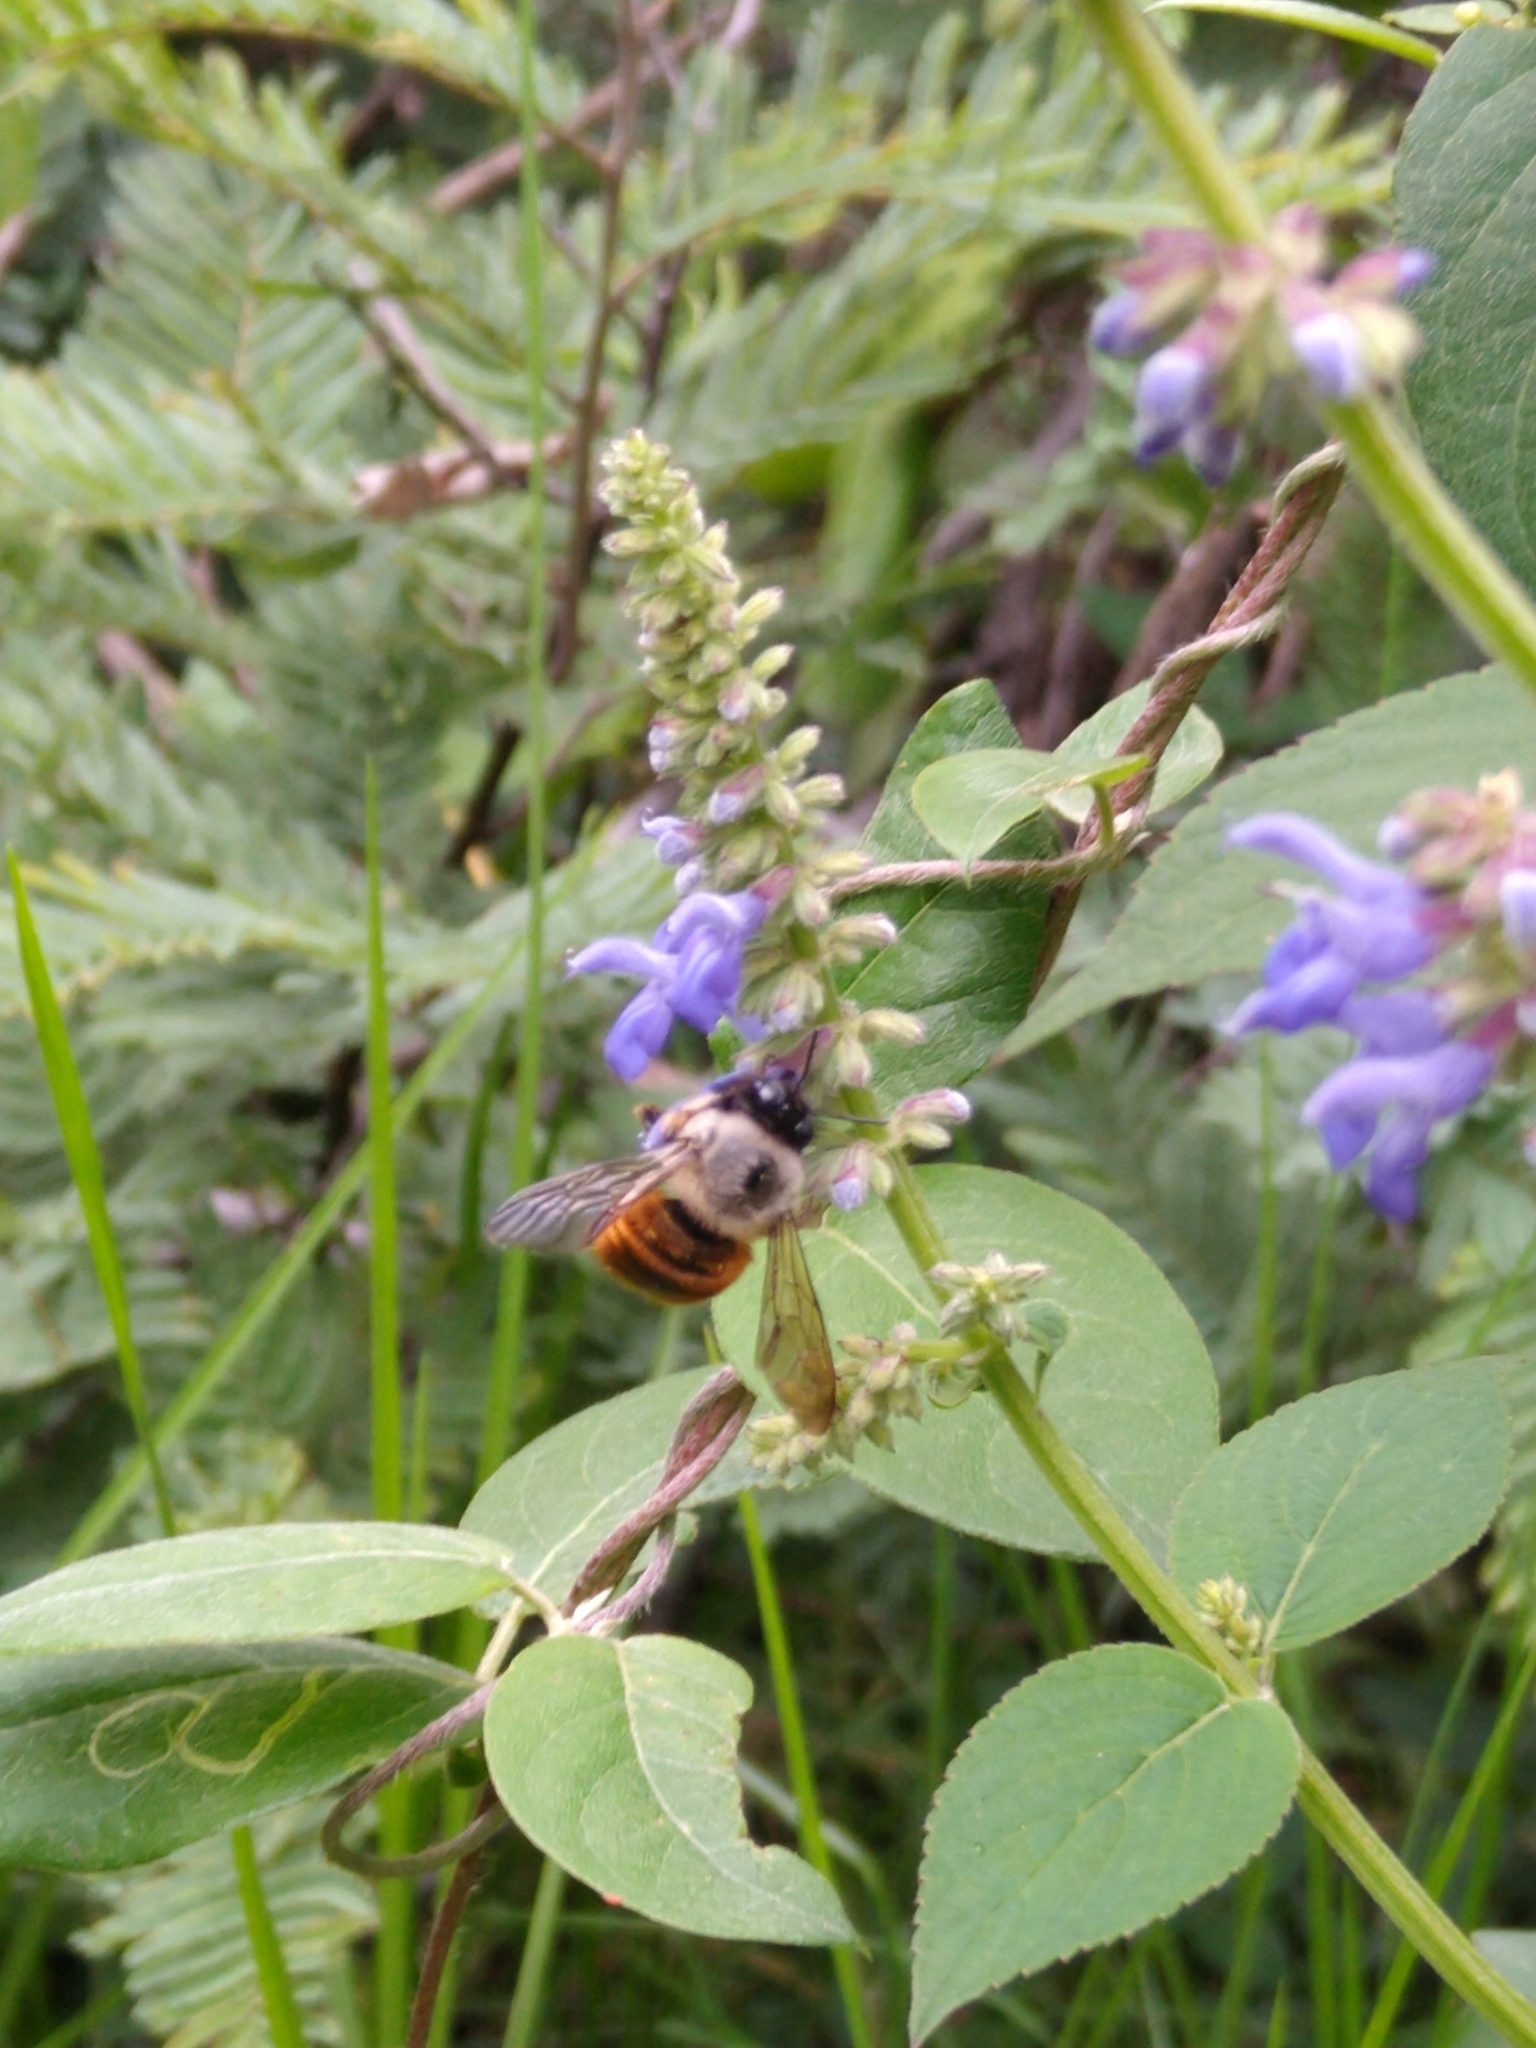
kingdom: Animalia
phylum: Arthropoda
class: Insecta
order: Hymenoptera
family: Apidae
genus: Xylocopa
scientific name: Xylocopa tabaniformis
